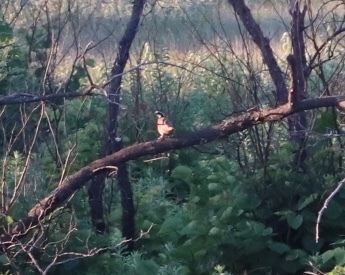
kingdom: Animalia
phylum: Chordata
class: Aves
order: Galliformes
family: Odontophoridae
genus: Colinus
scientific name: Colinus virginianus
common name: Northern bobwhite
